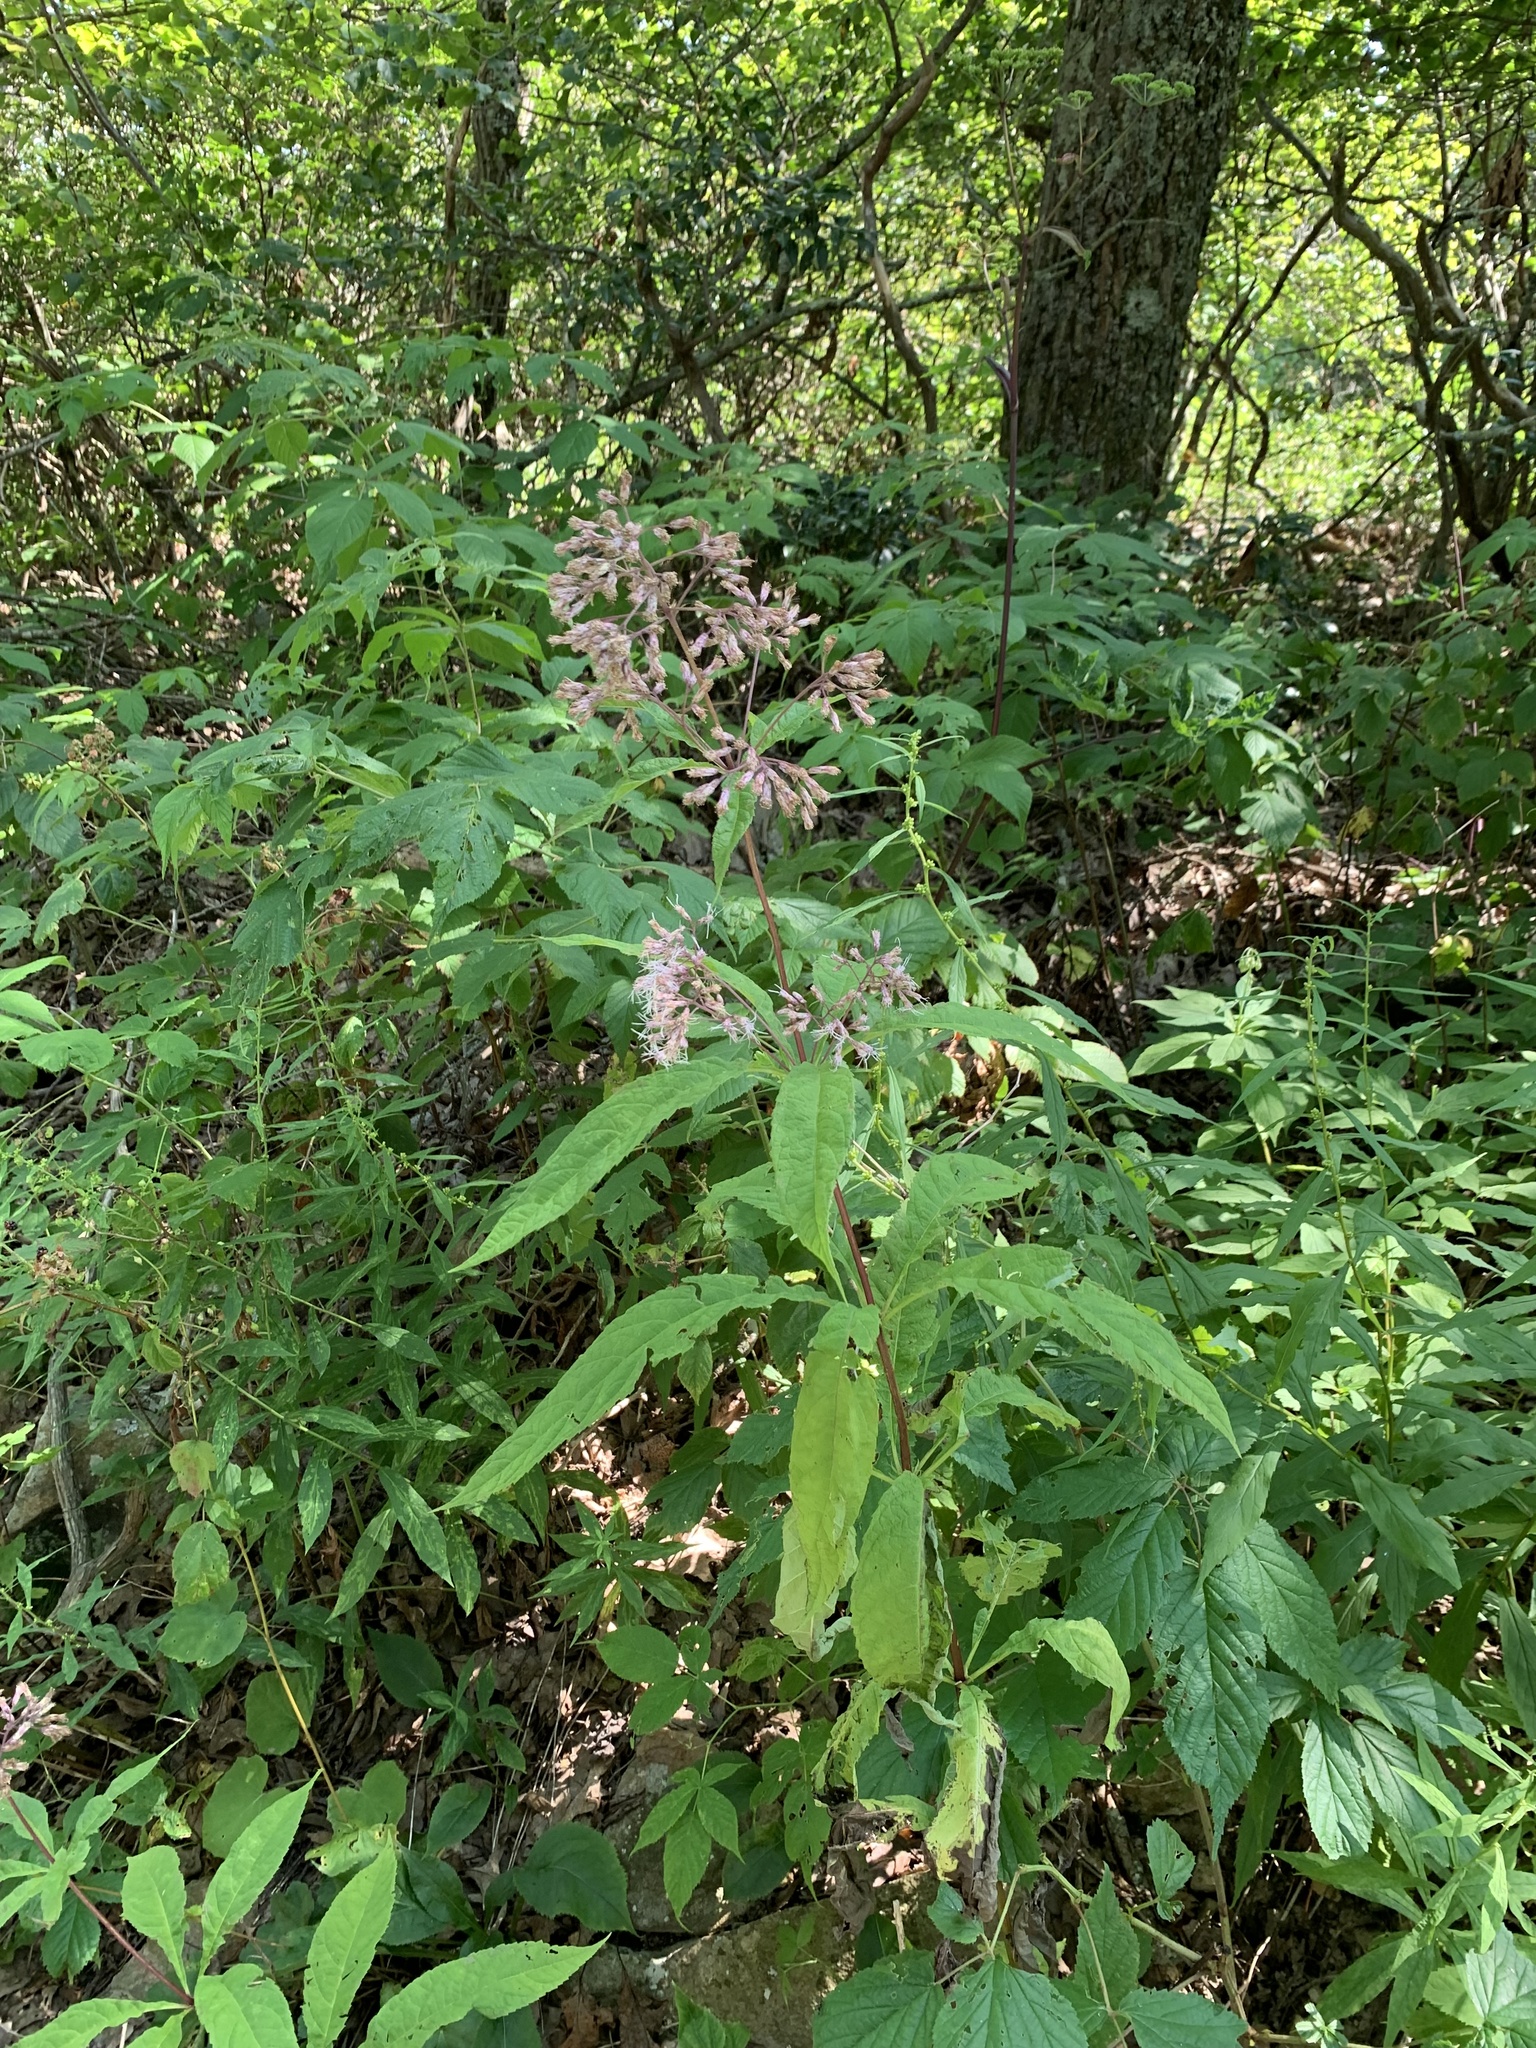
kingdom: Plantae
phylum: Tracheophyta
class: Magnoliopsida
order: Asterales
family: Asteraceae
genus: Oclemena
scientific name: Oclemena acuminata
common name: Mountain aster
